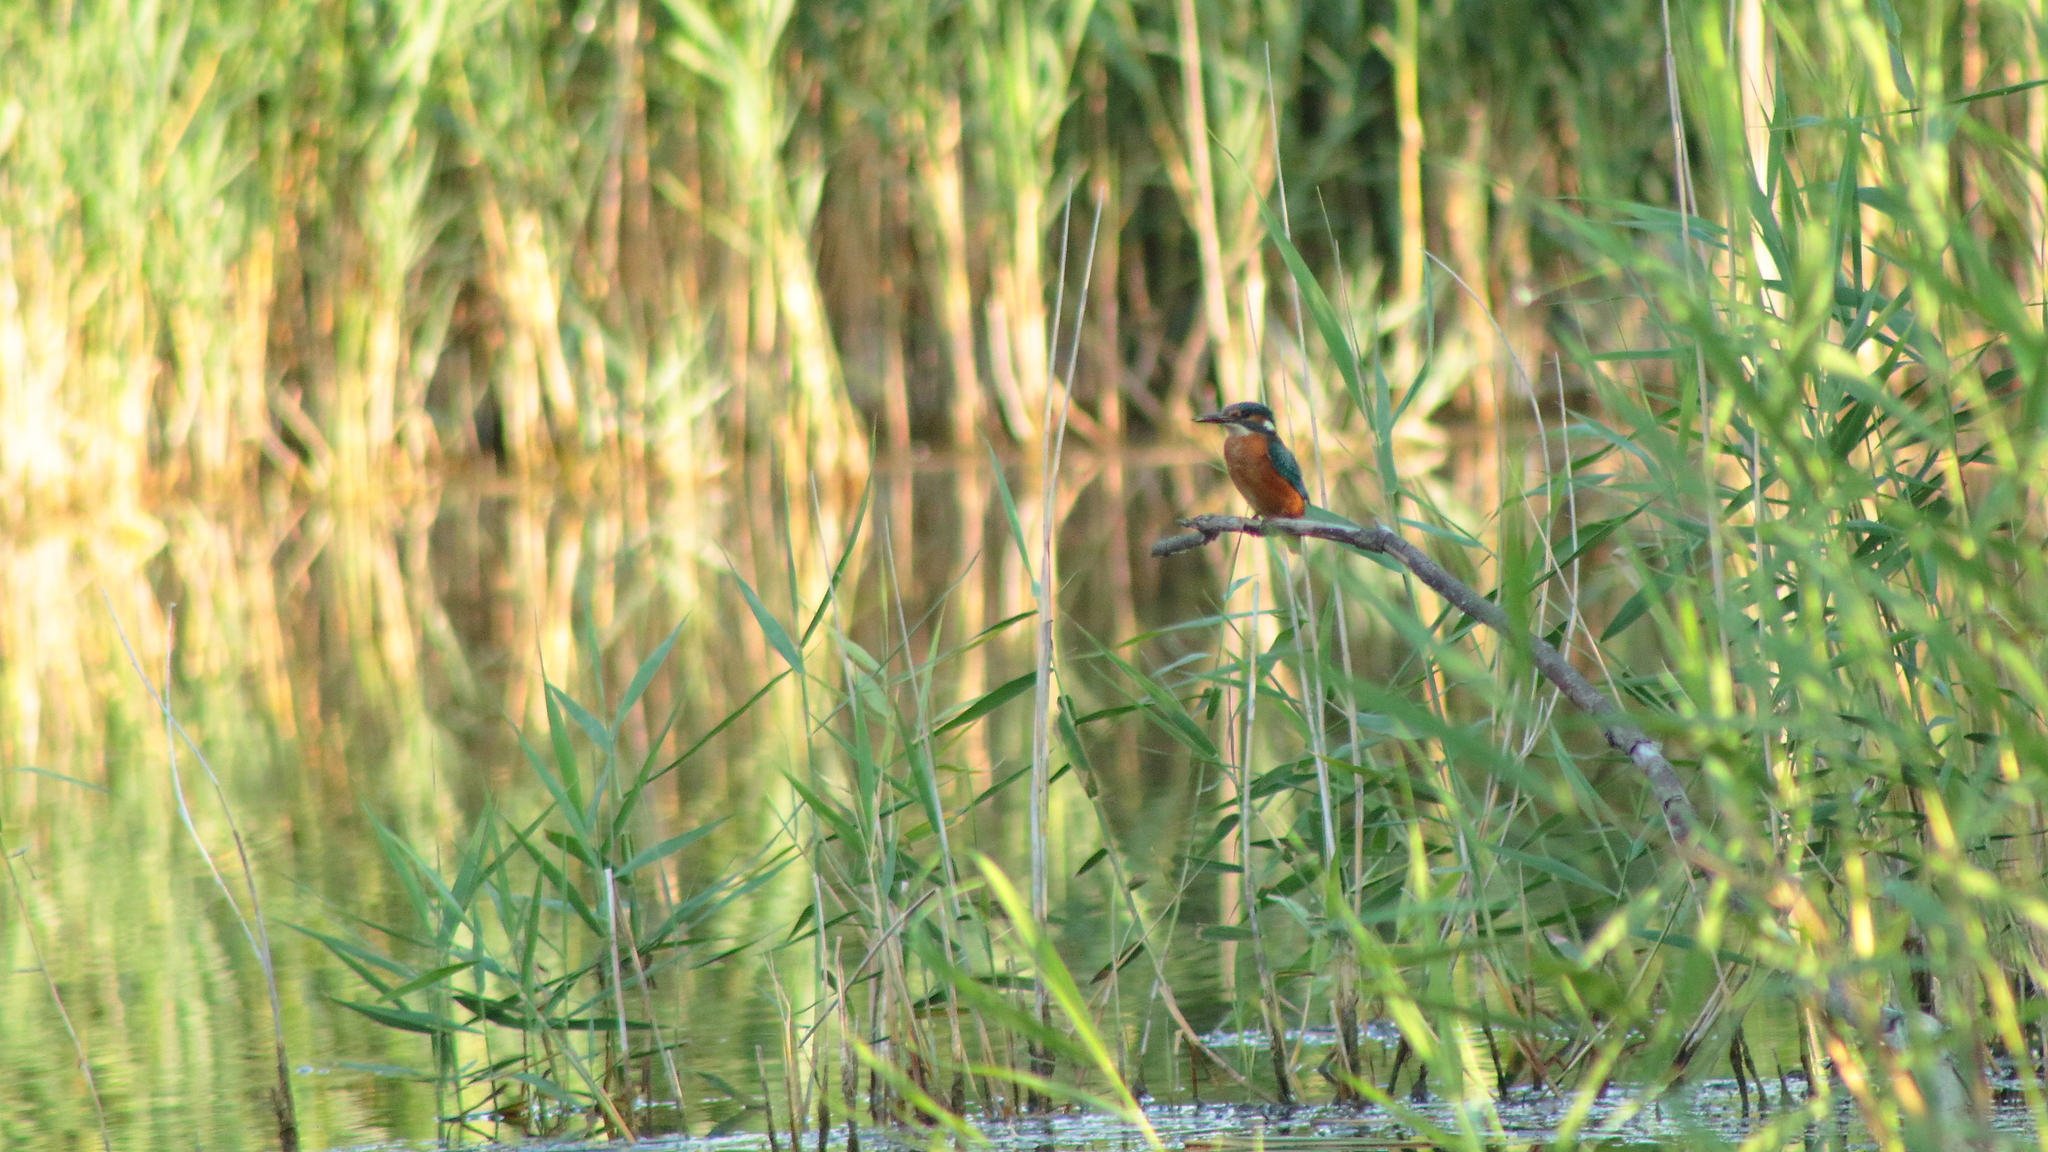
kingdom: Animalia
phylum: Chordata
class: Aves
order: Coraciiformes
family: Alcedinidae
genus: Alcedo
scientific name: Alcedo atthis
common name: Common kingfisher
